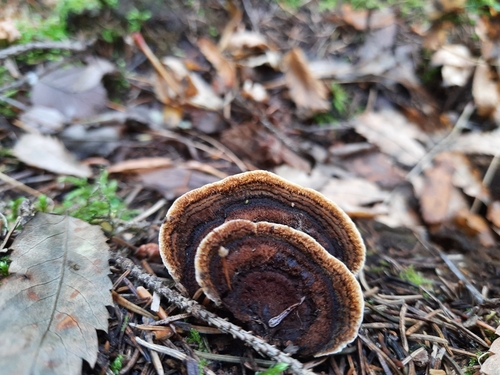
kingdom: Fungi
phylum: Basidiomycota
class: Agaricomycetes
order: Gloeophyllales
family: Gloeophyllaceae
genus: Gloeophyllum
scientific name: Gloeophyllum sepiarium
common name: Conifer mazegill
